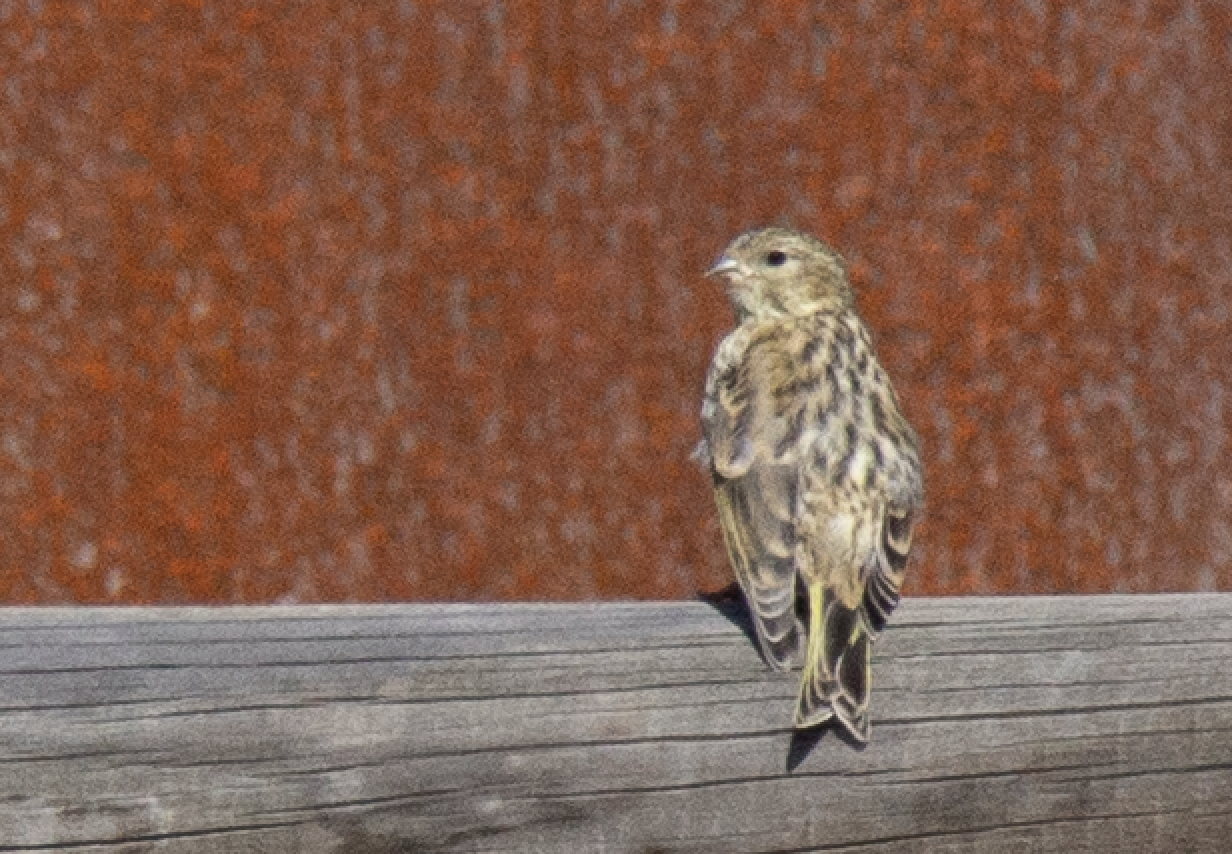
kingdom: Animalia
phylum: Chordata
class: Aves
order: Passeriformes
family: Fringillidae
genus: Serinus
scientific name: Serinus serinus
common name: European serin
